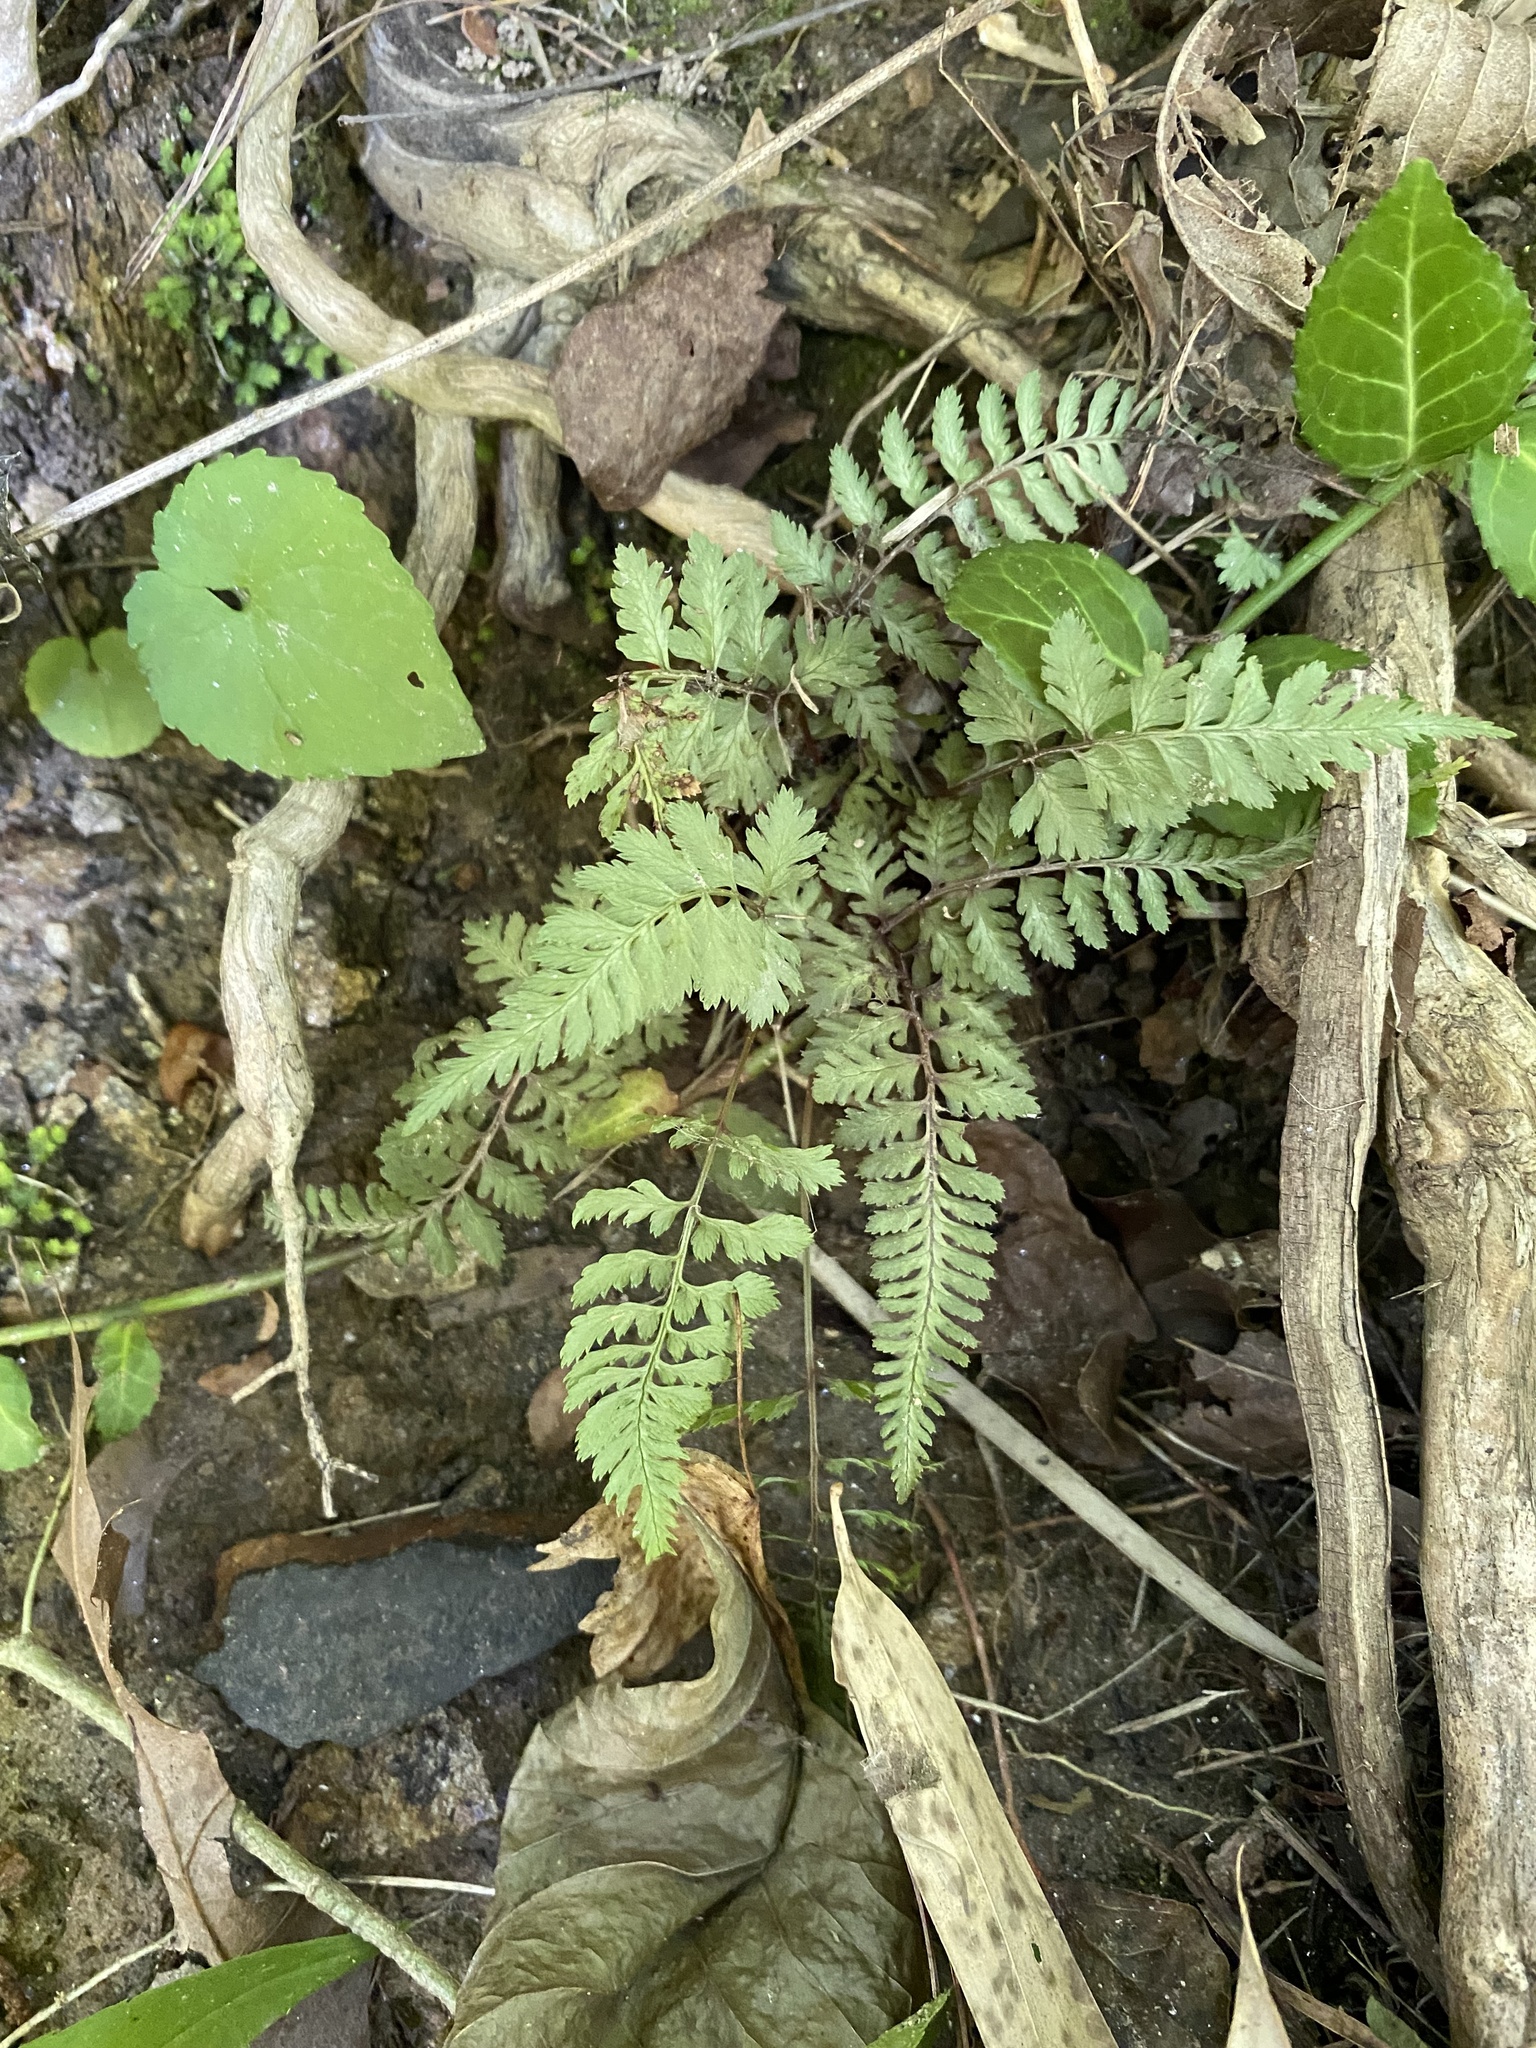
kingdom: Plantae
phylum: Tracheophyta
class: Polypodiopsida
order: Polypodiales
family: Athyriaceae
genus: Anisocampium
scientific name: Anisocampium niponicum
